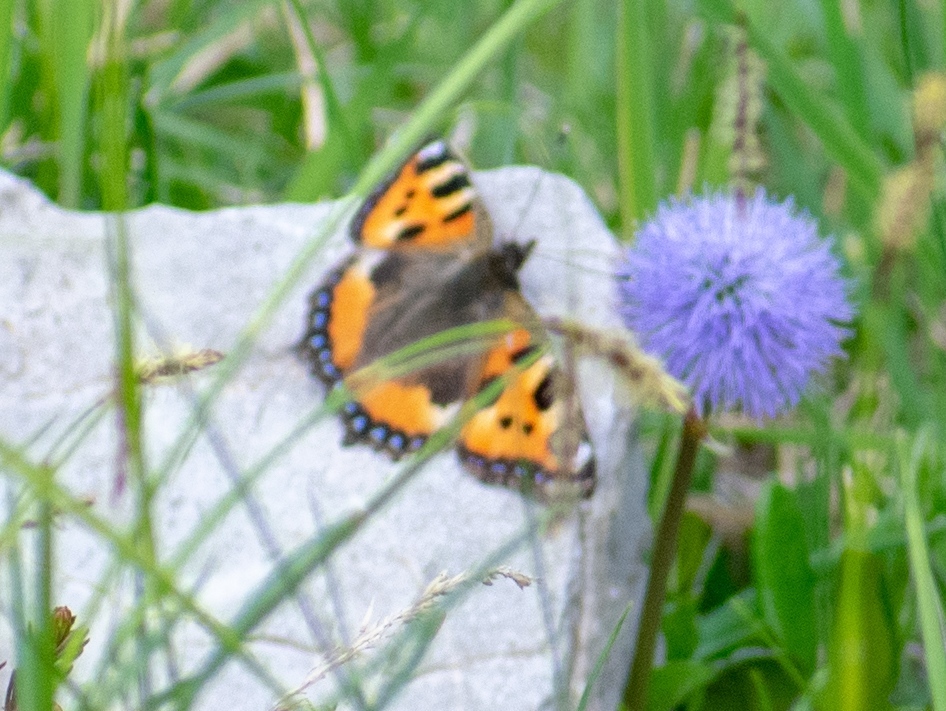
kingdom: Animalia
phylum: Arthropoda
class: Insecta
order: Lepidoptera
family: Nymphalidae
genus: Aglais
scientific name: Aglais urticae
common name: Small tortoiseshell
